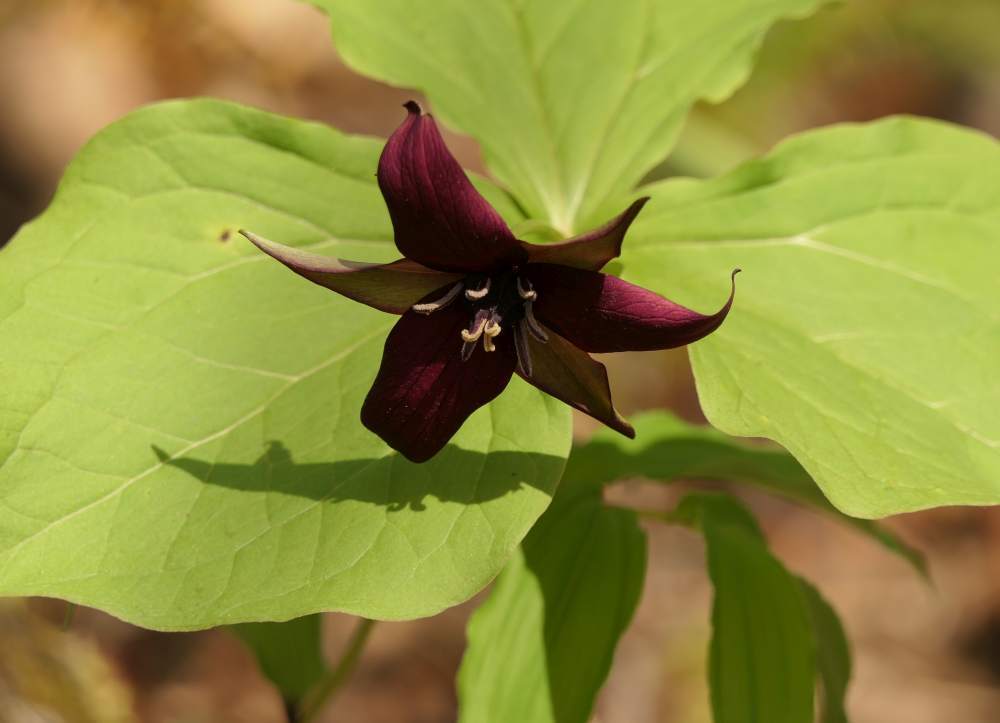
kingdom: Plantae
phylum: Tracheophyta
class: Liliopsida
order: Liliales
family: Melanthiaceae
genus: Trillium
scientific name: Trillium erectum
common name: Purple trillium
